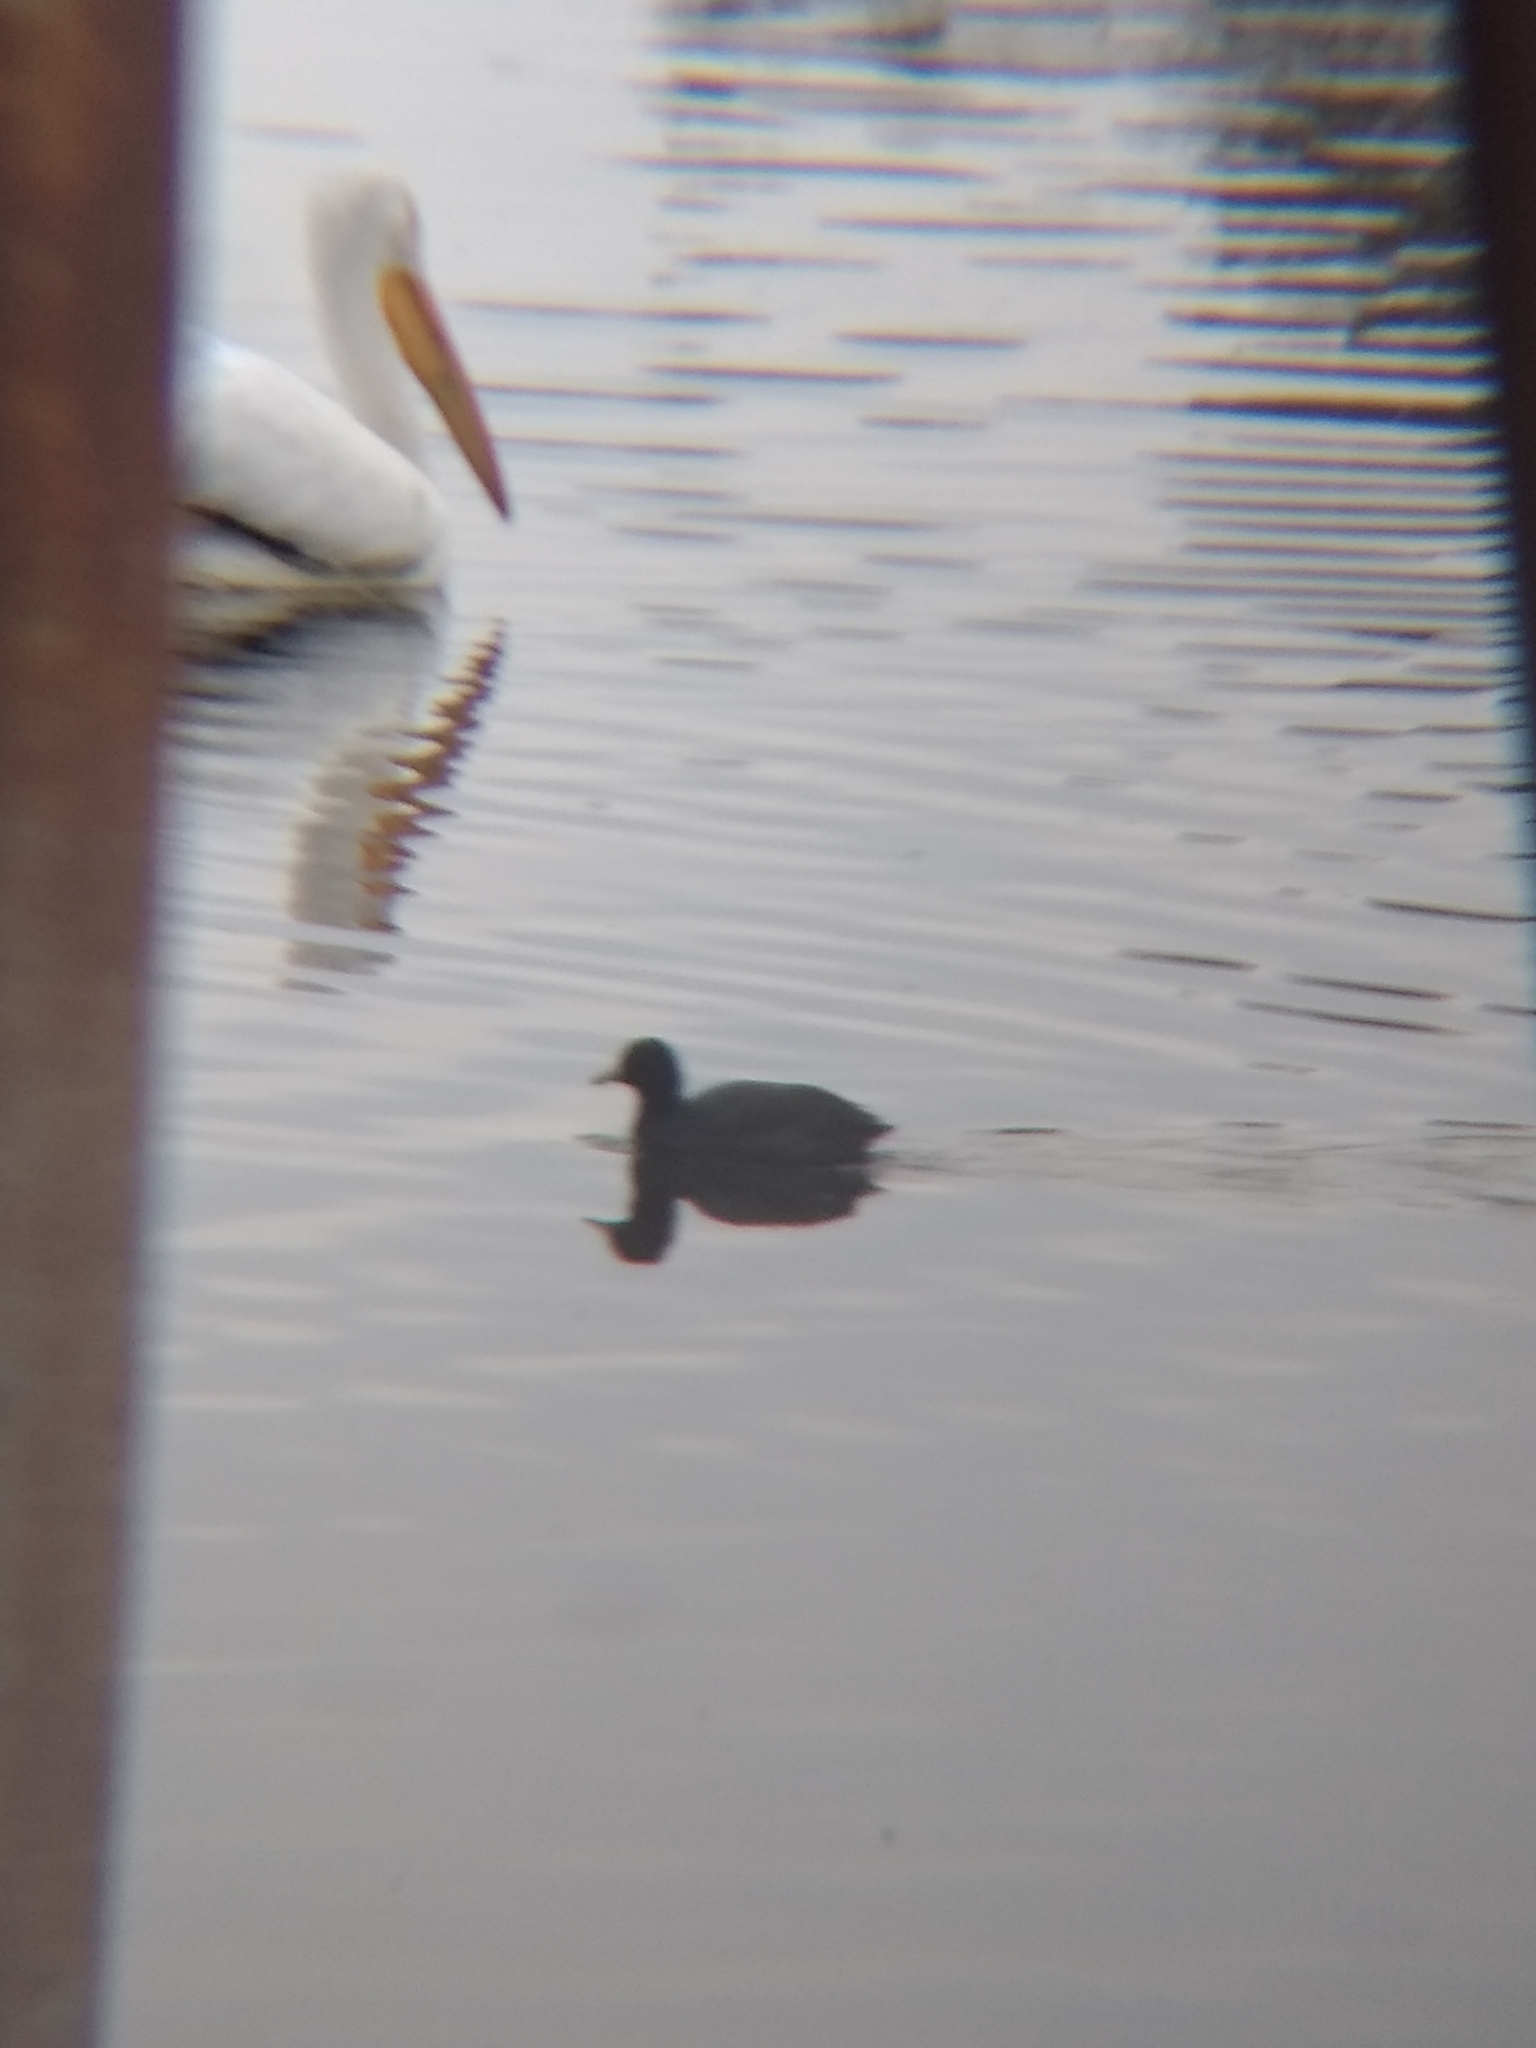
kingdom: Animalia
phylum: Chordata
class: Aves
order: Gruiformes
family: Rallidae
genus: Fulica
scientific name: Fulica americana
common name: American coot
